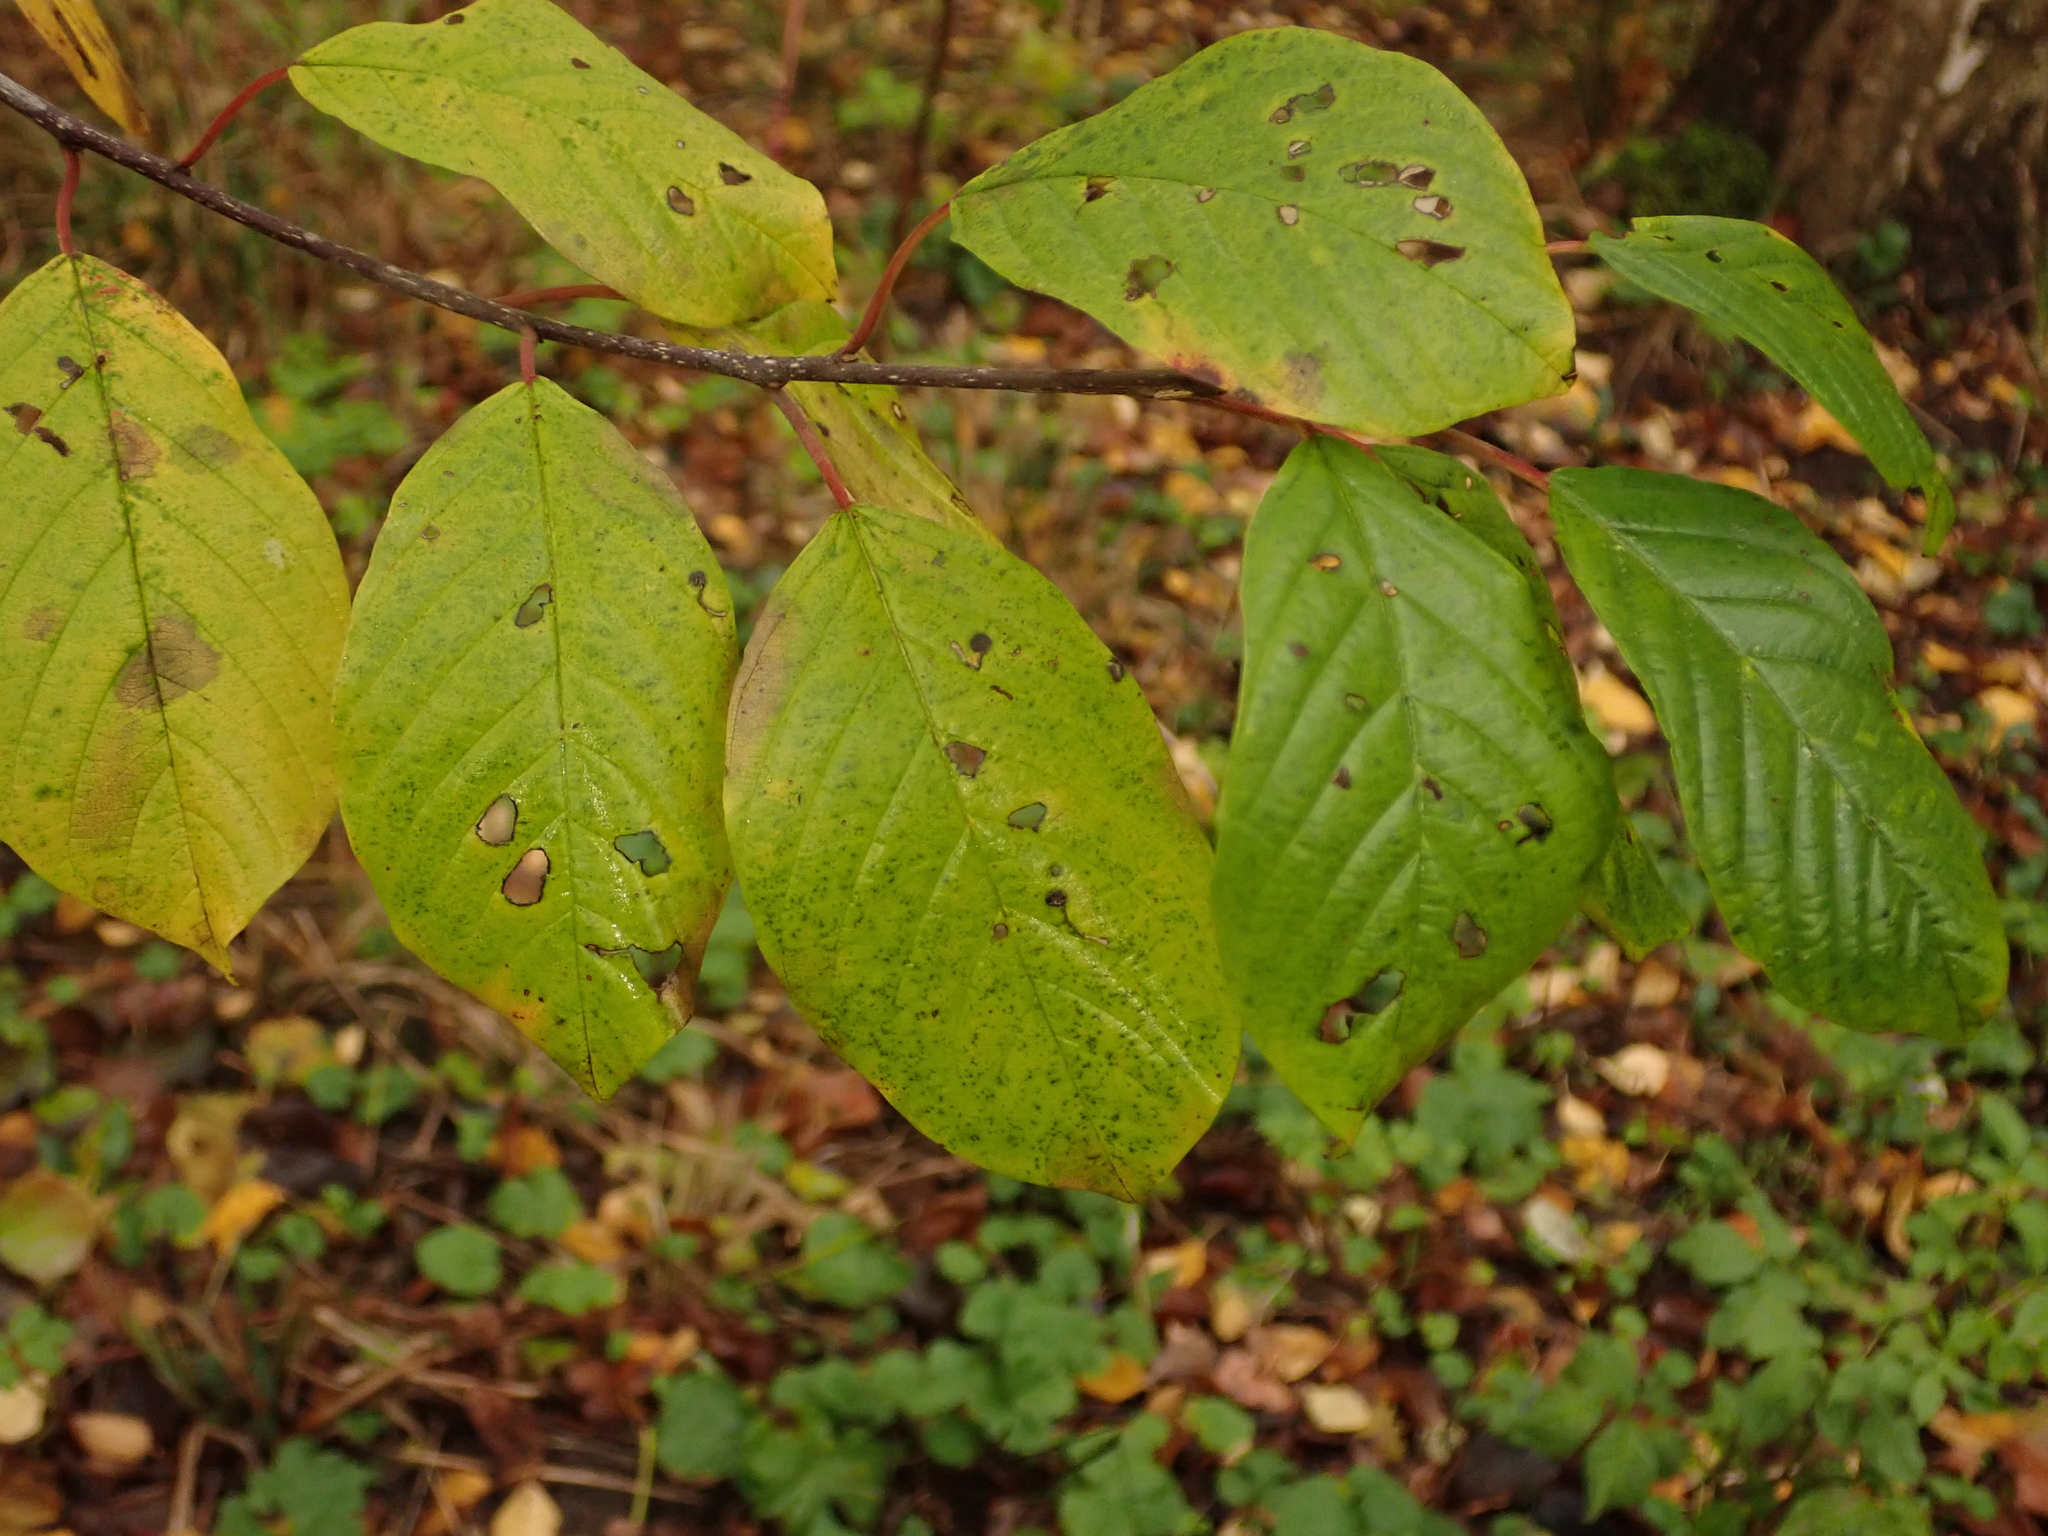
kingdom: Plantae
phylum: Tracheophyta
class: Magnoliopsida
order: Rosales
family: Rhamnaceae
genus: Frangula
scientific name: Frangula alnus
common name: Alder buckthorn
